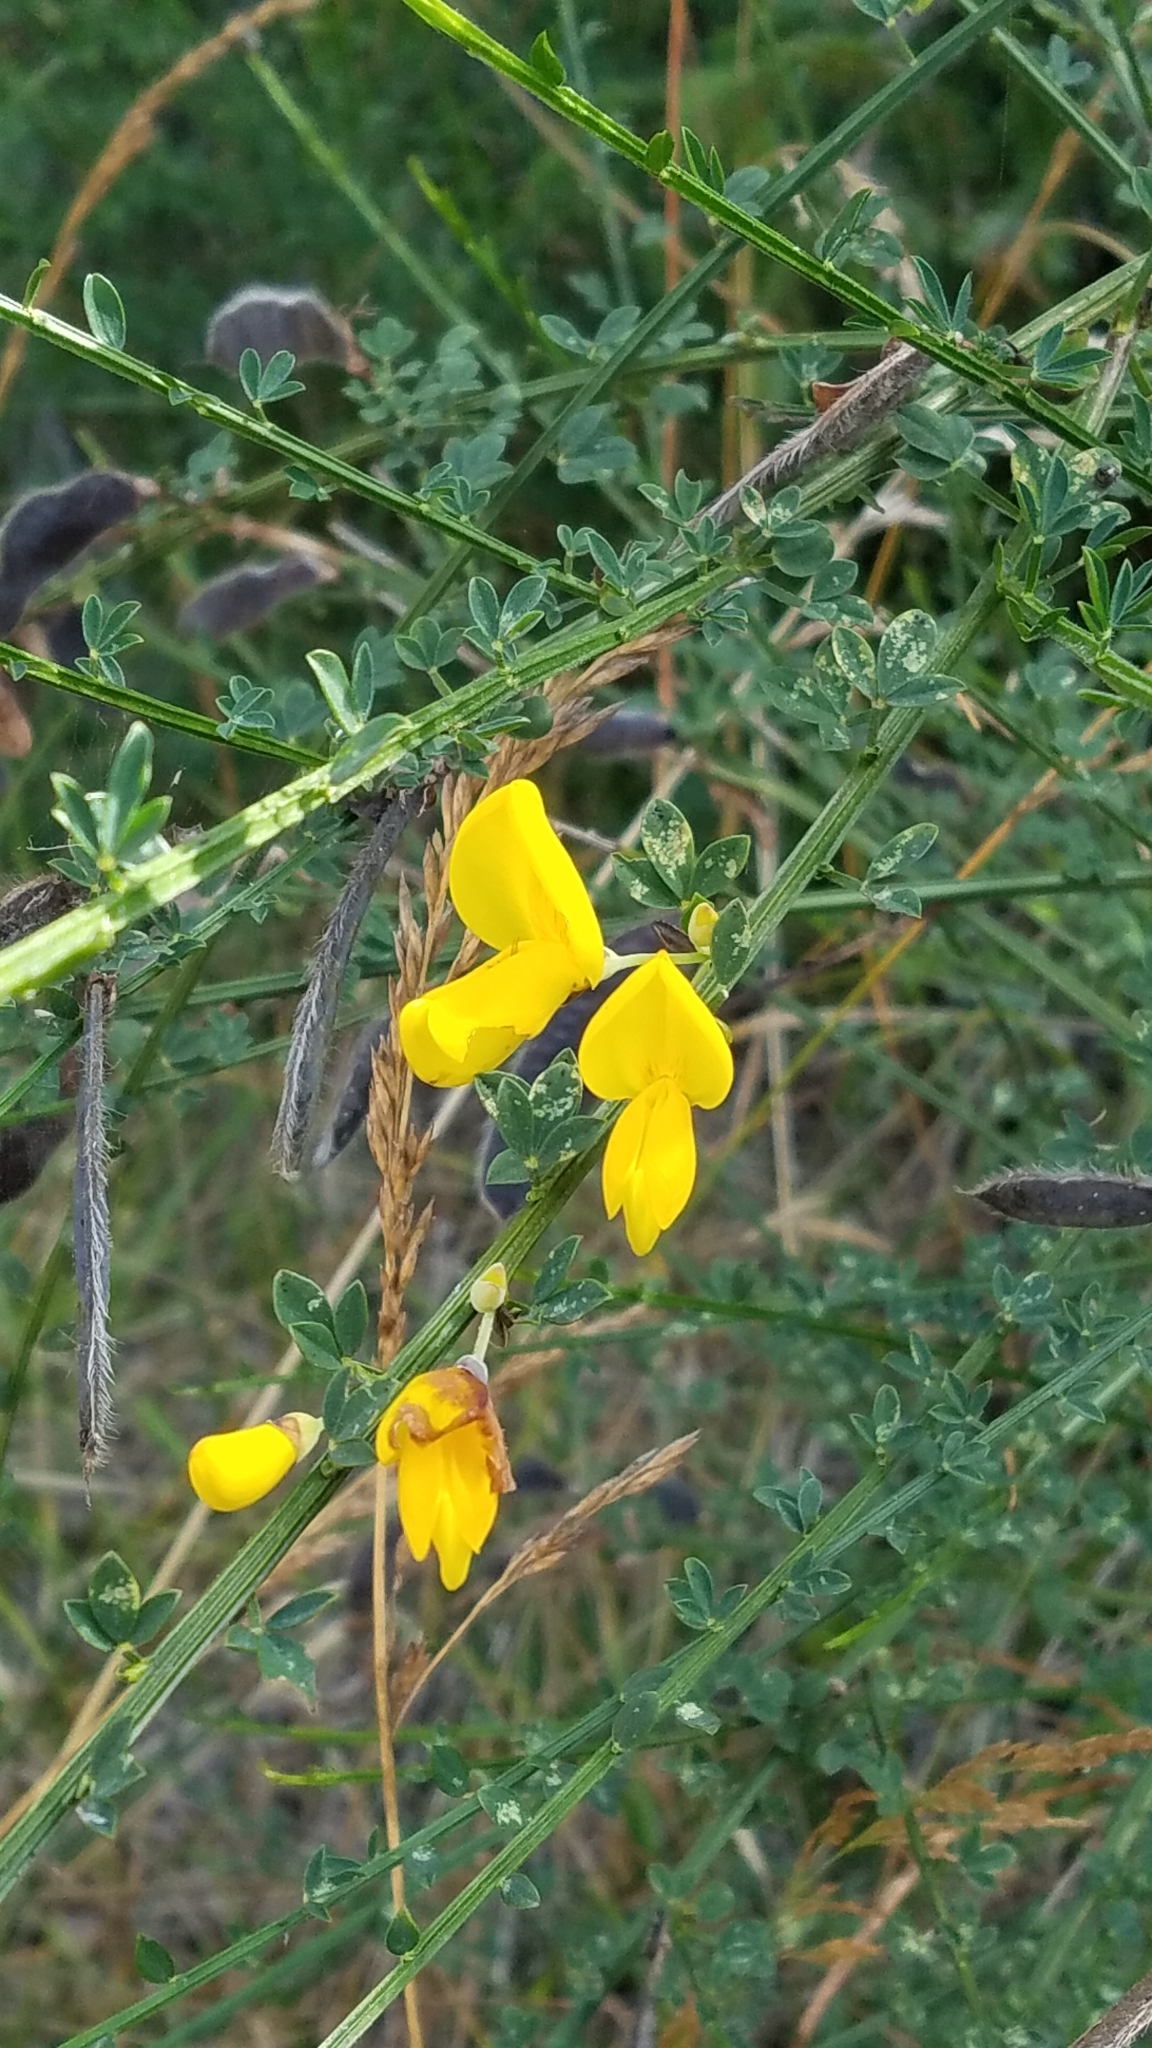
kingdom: Plantae
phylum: Tracheophyta
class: Magnoliopsida
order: Fabales
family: Fabaceae
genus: Cytisus
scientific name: Cytisus scoparius
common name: Scotch broom
